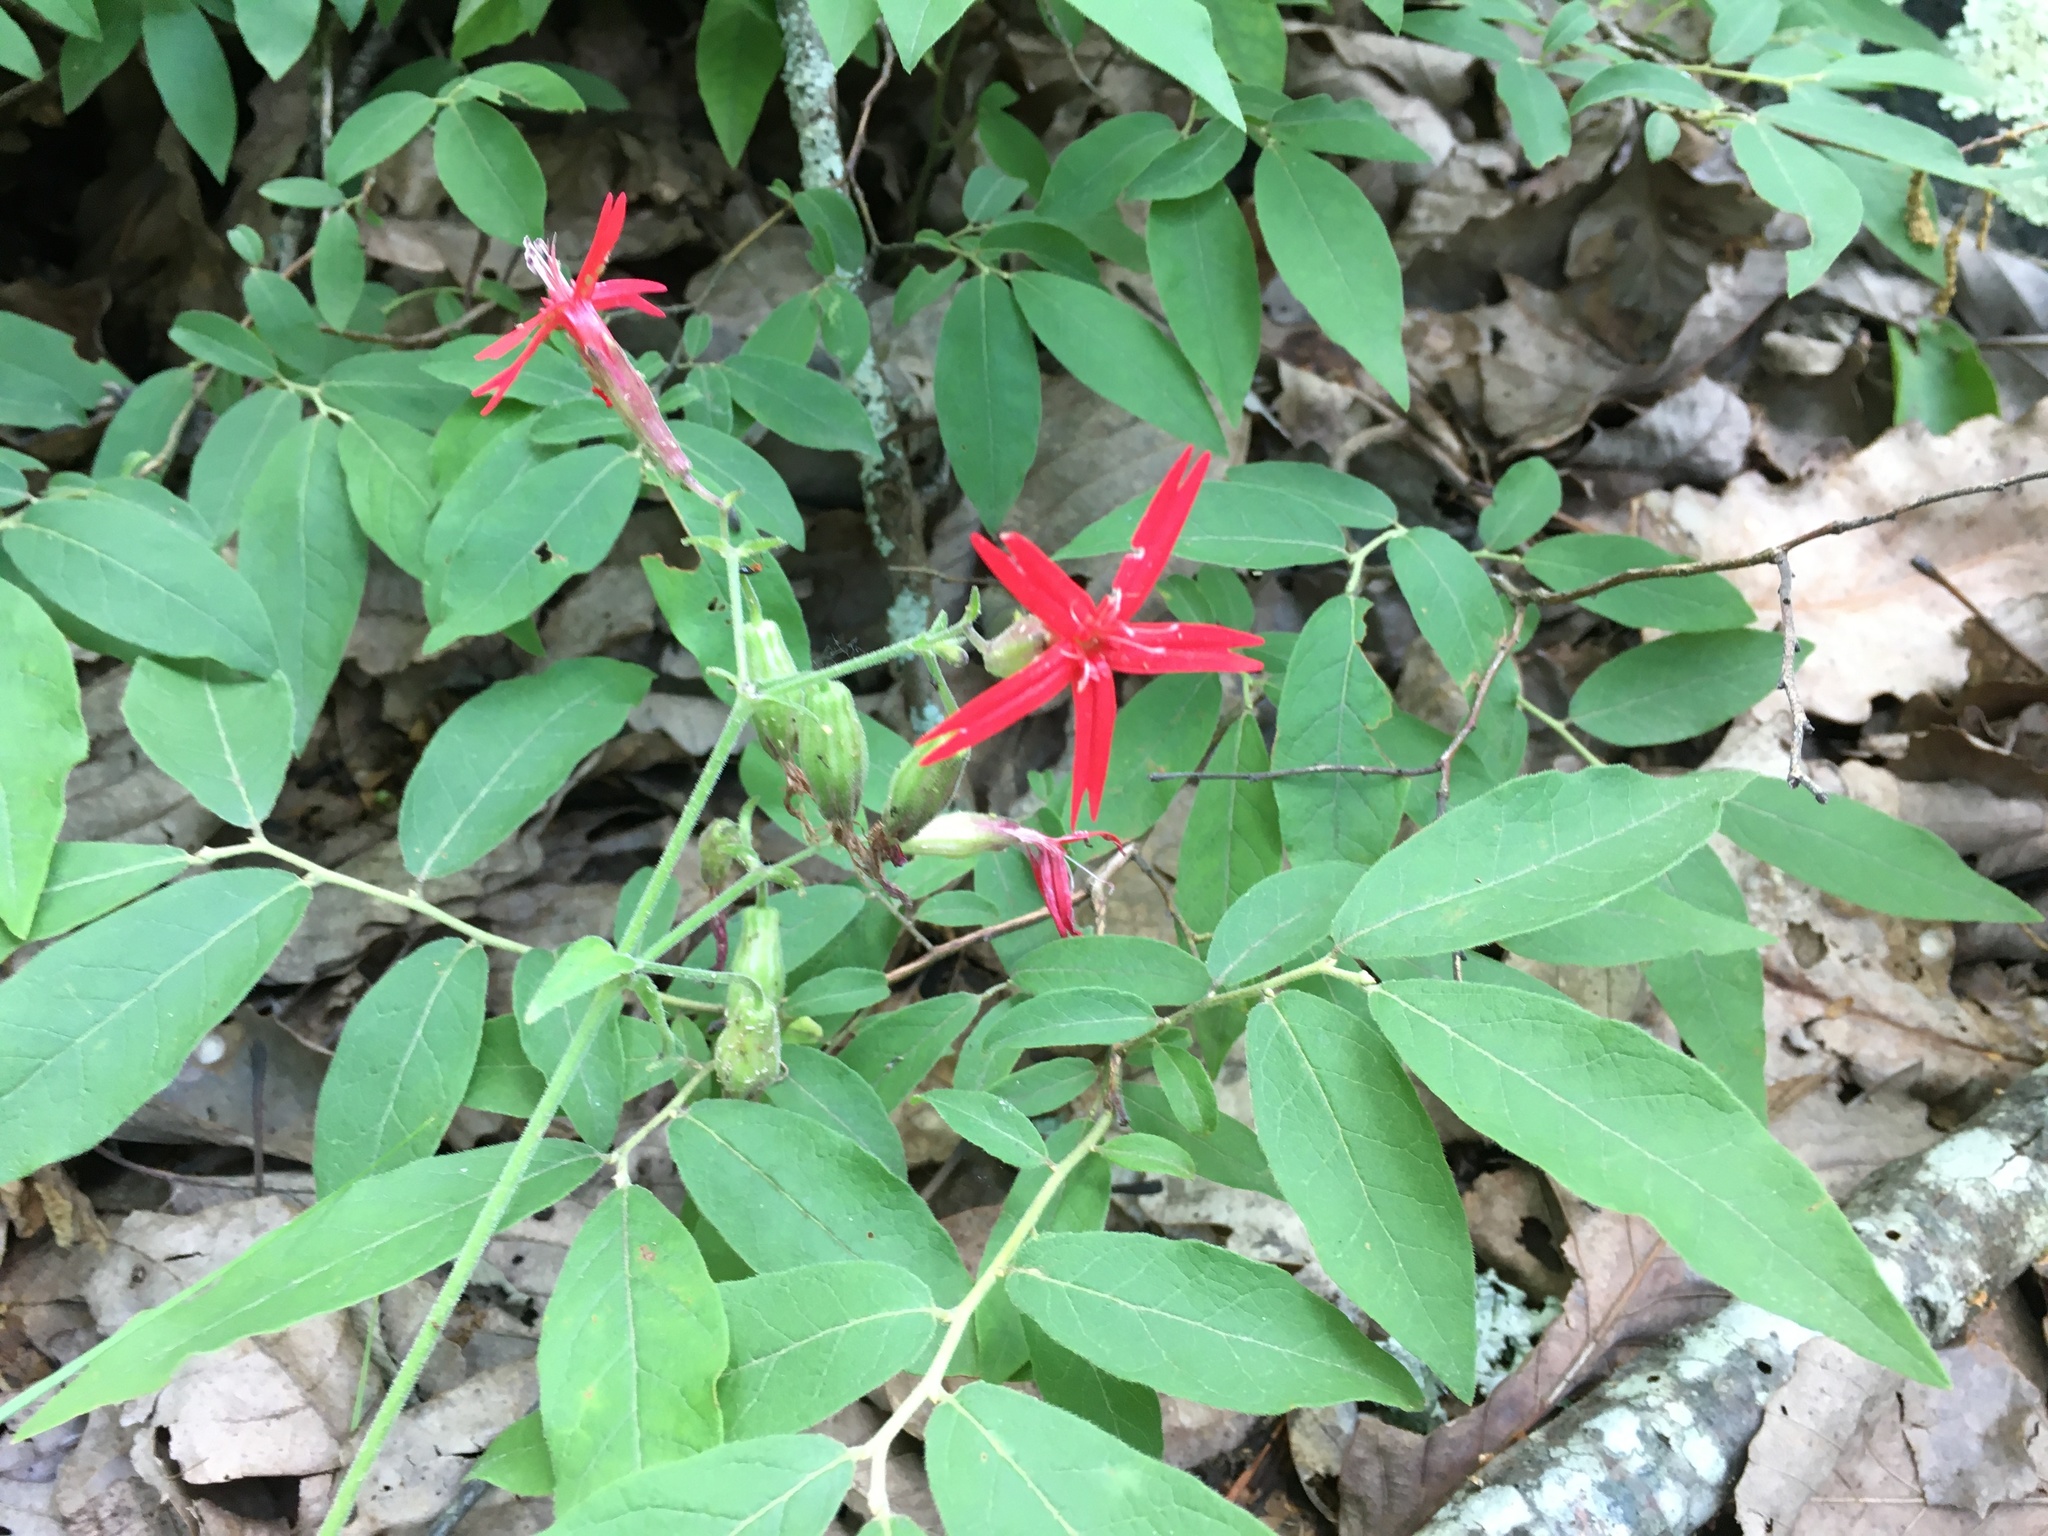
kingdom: Plantae
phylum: Tracheophyta
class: Magnoliopsida
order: Caryophyllales
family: Caryophyllaceae
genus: Silene
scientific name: Silene virginica
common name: Fire-pink
